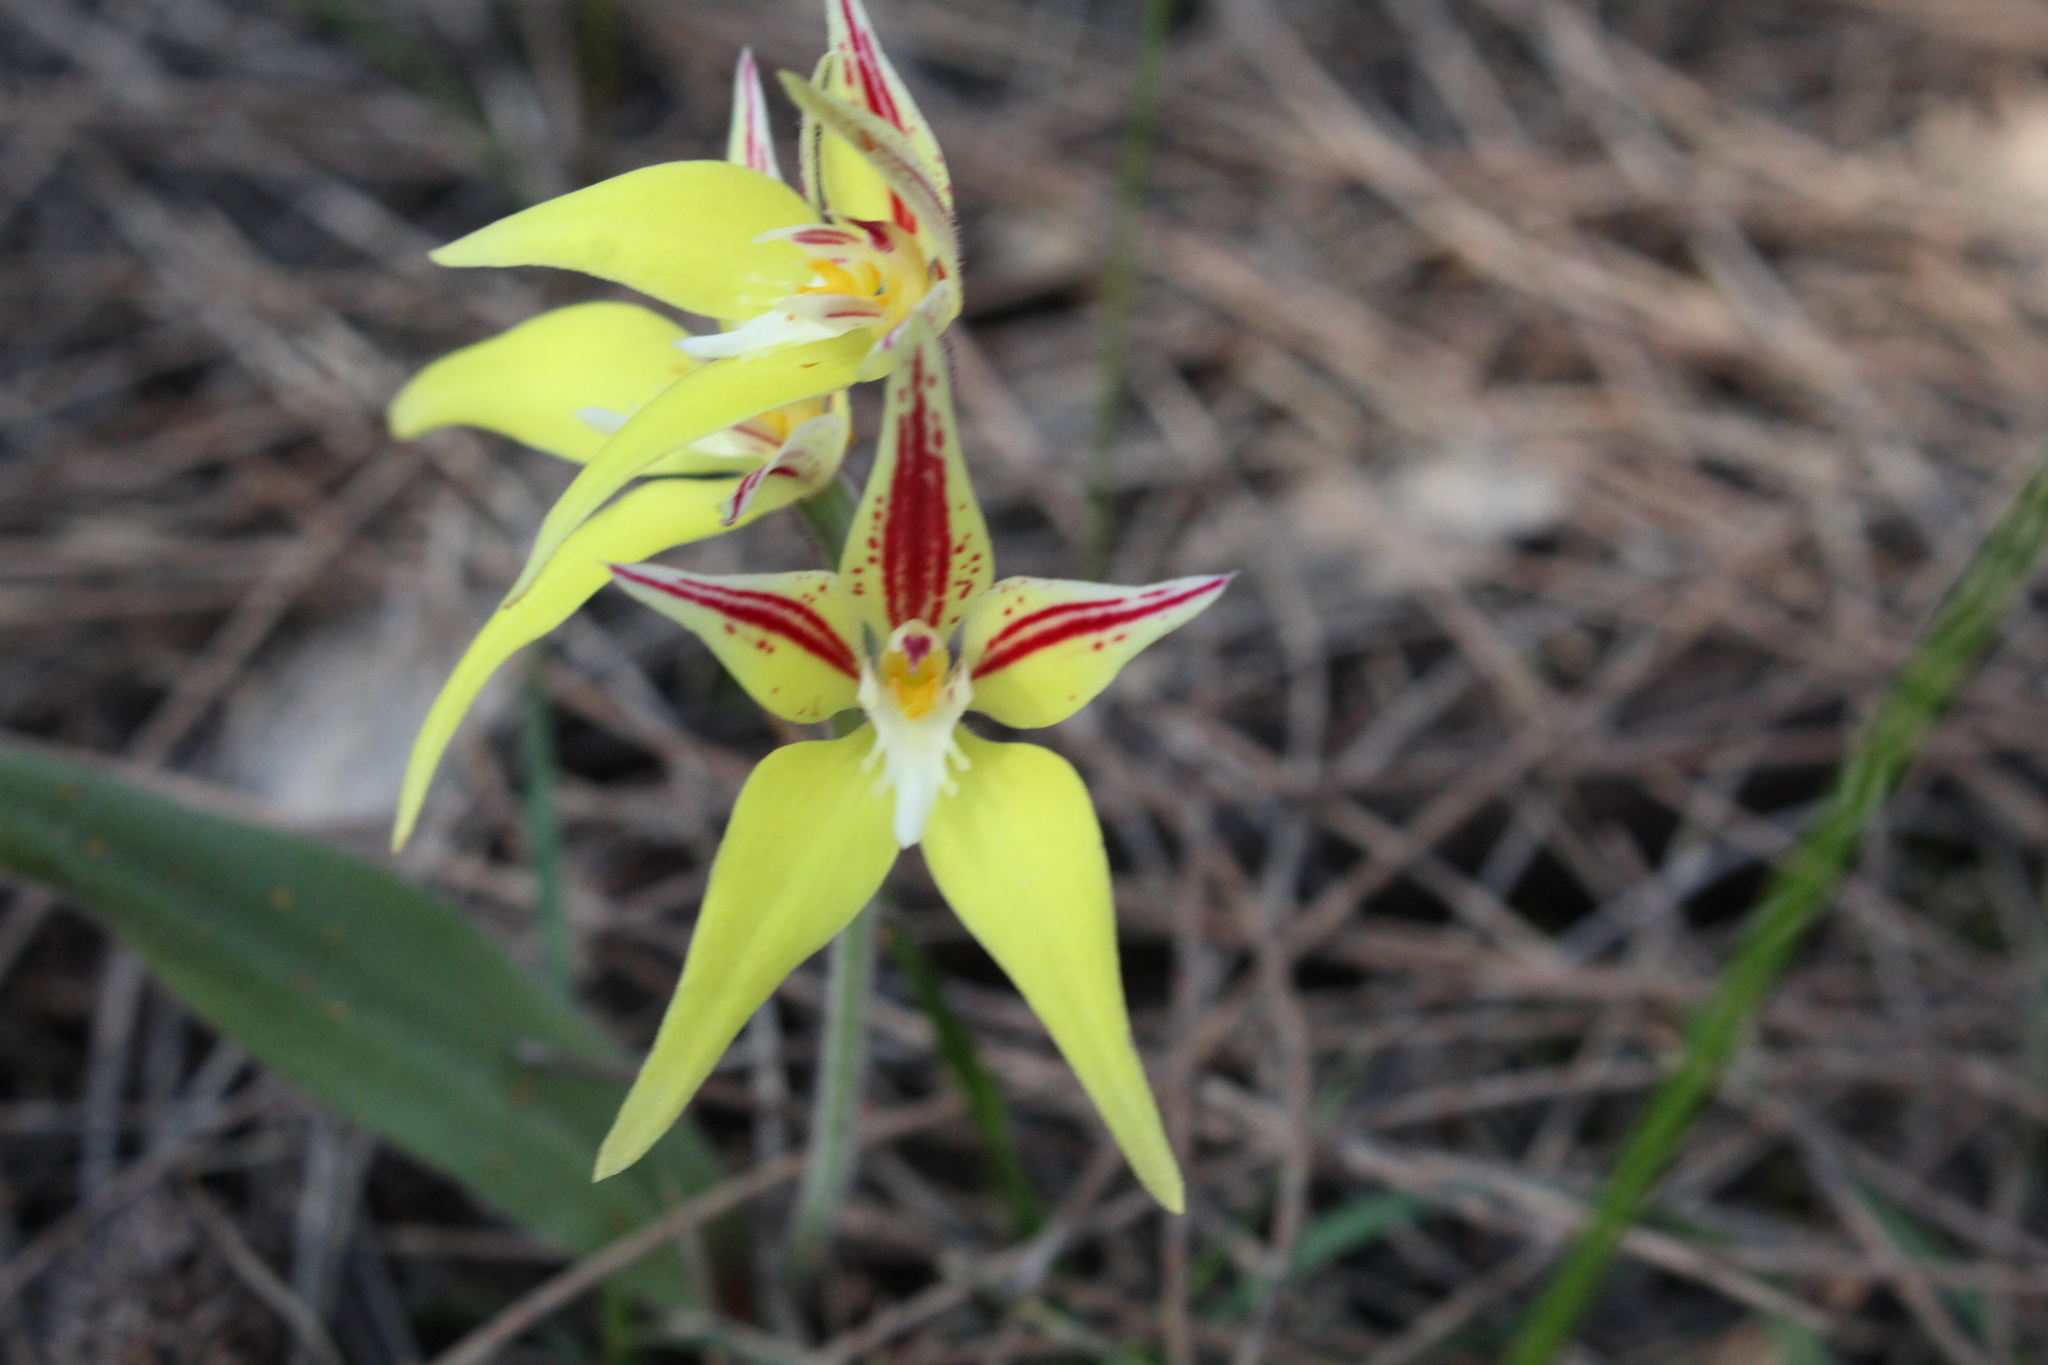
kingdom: Plantae
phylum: Tracheophyta
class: Liliopsida
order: Asparagales
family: Orchidaceae
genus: Caladenia
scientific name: Caladenia flava
